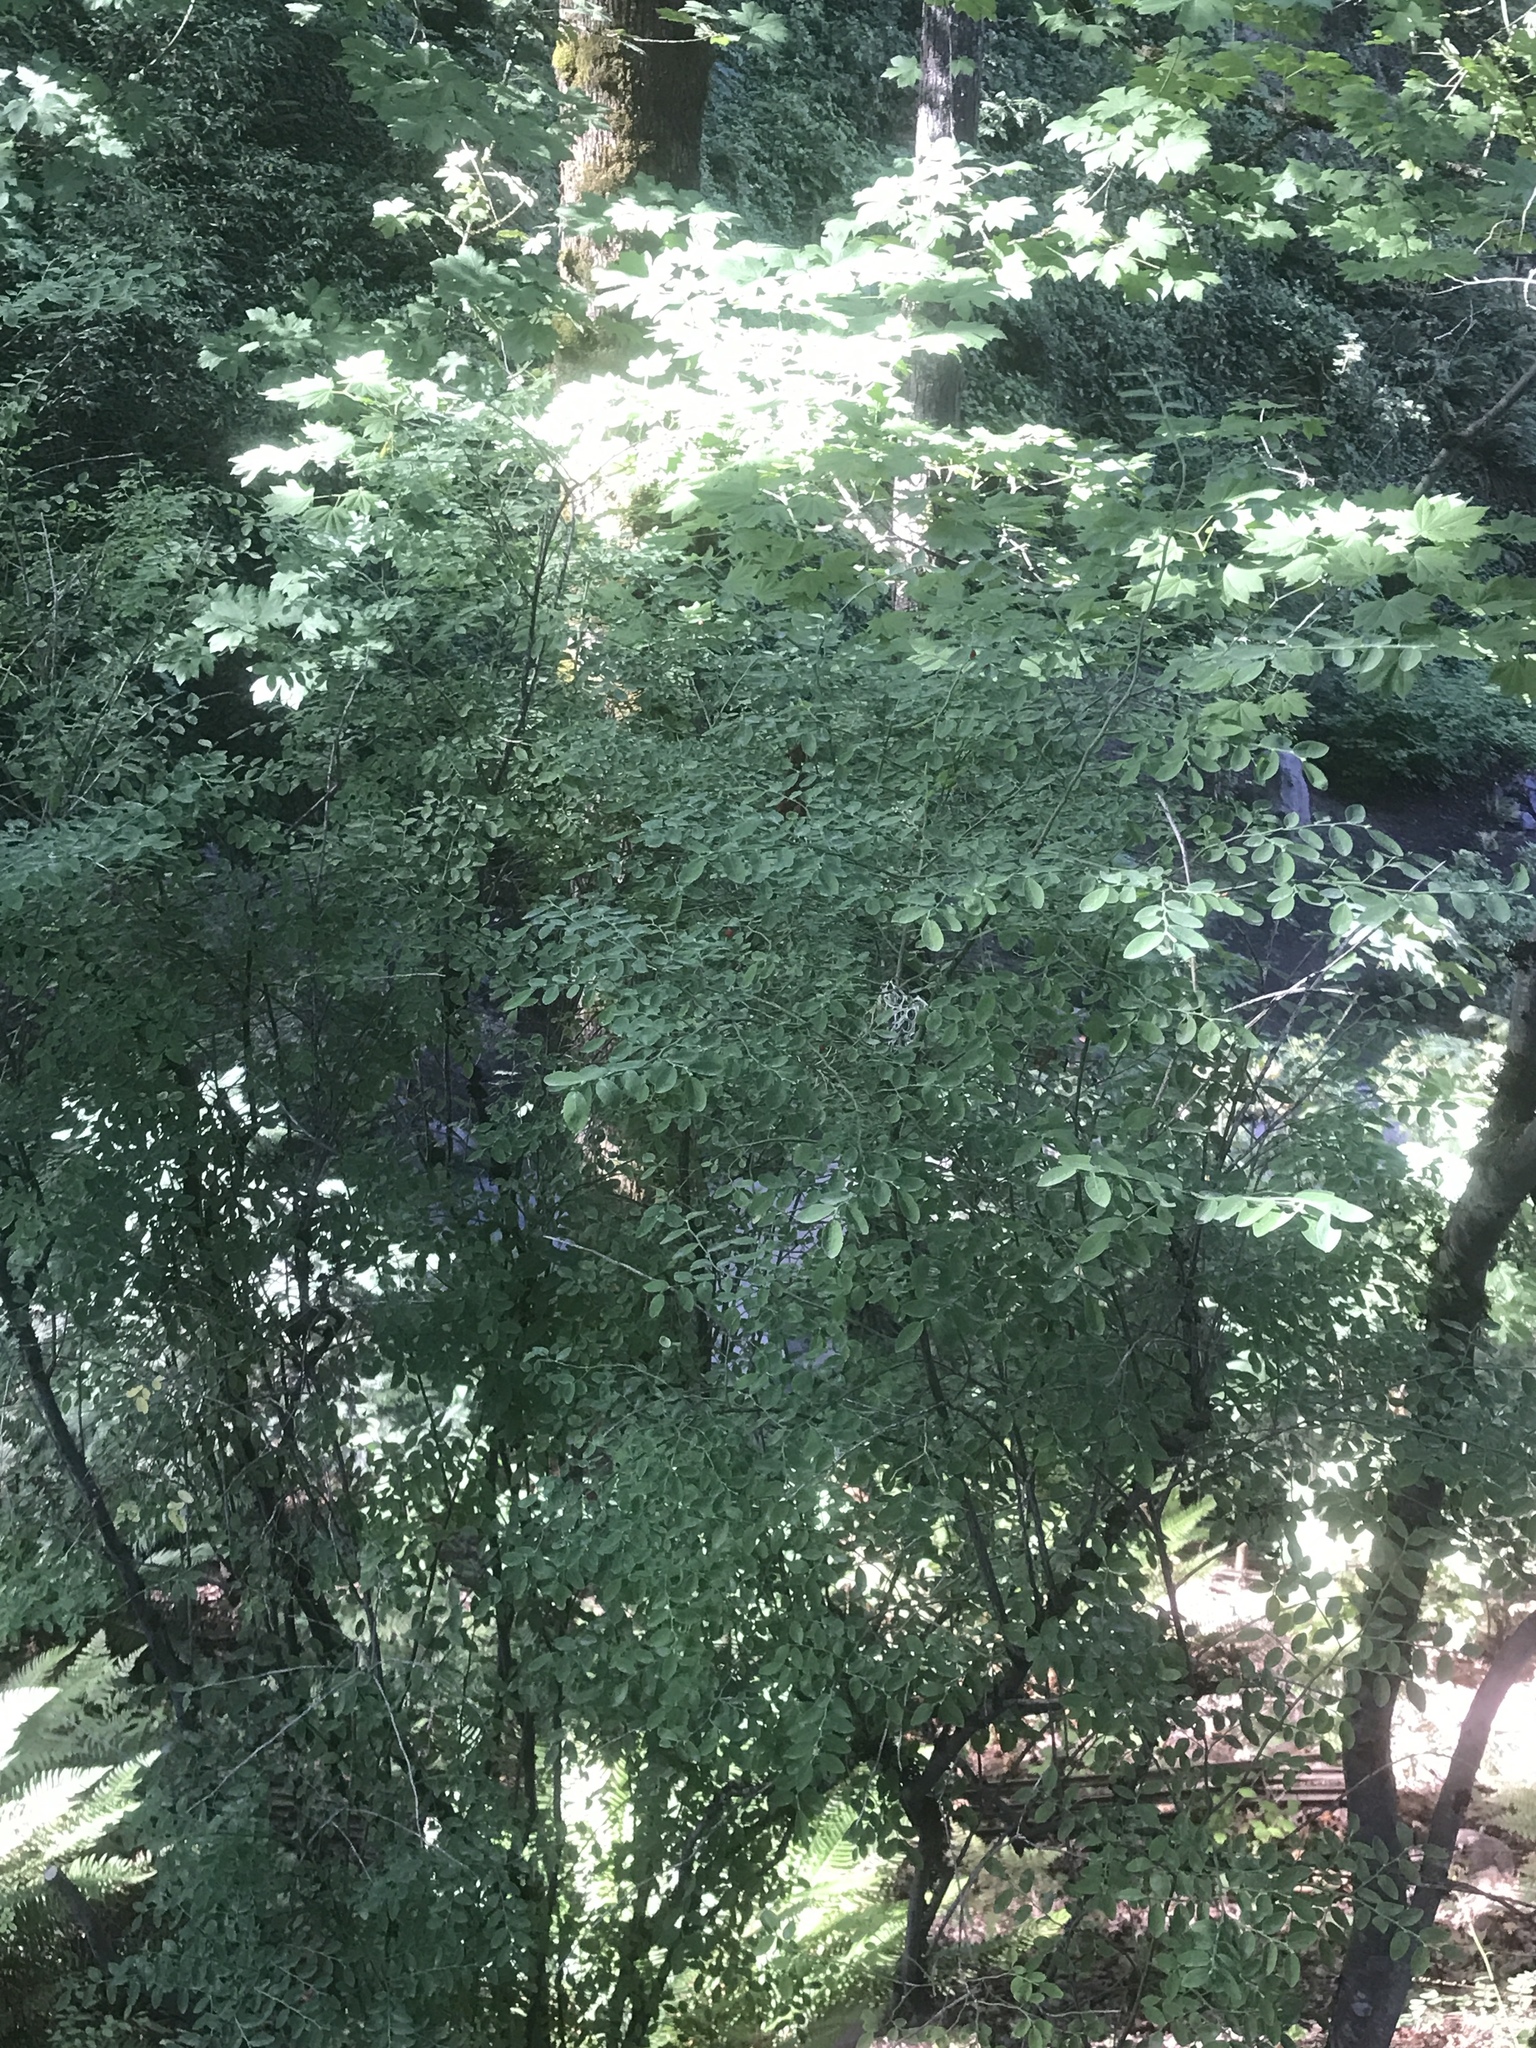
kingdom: Plantae
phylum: Tracheophyta
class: Magnoliopsida
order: Ericales
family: Ericaceae
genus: Vaccinium
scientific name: Vaccinium parvifolium
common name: Red-huckleberry
